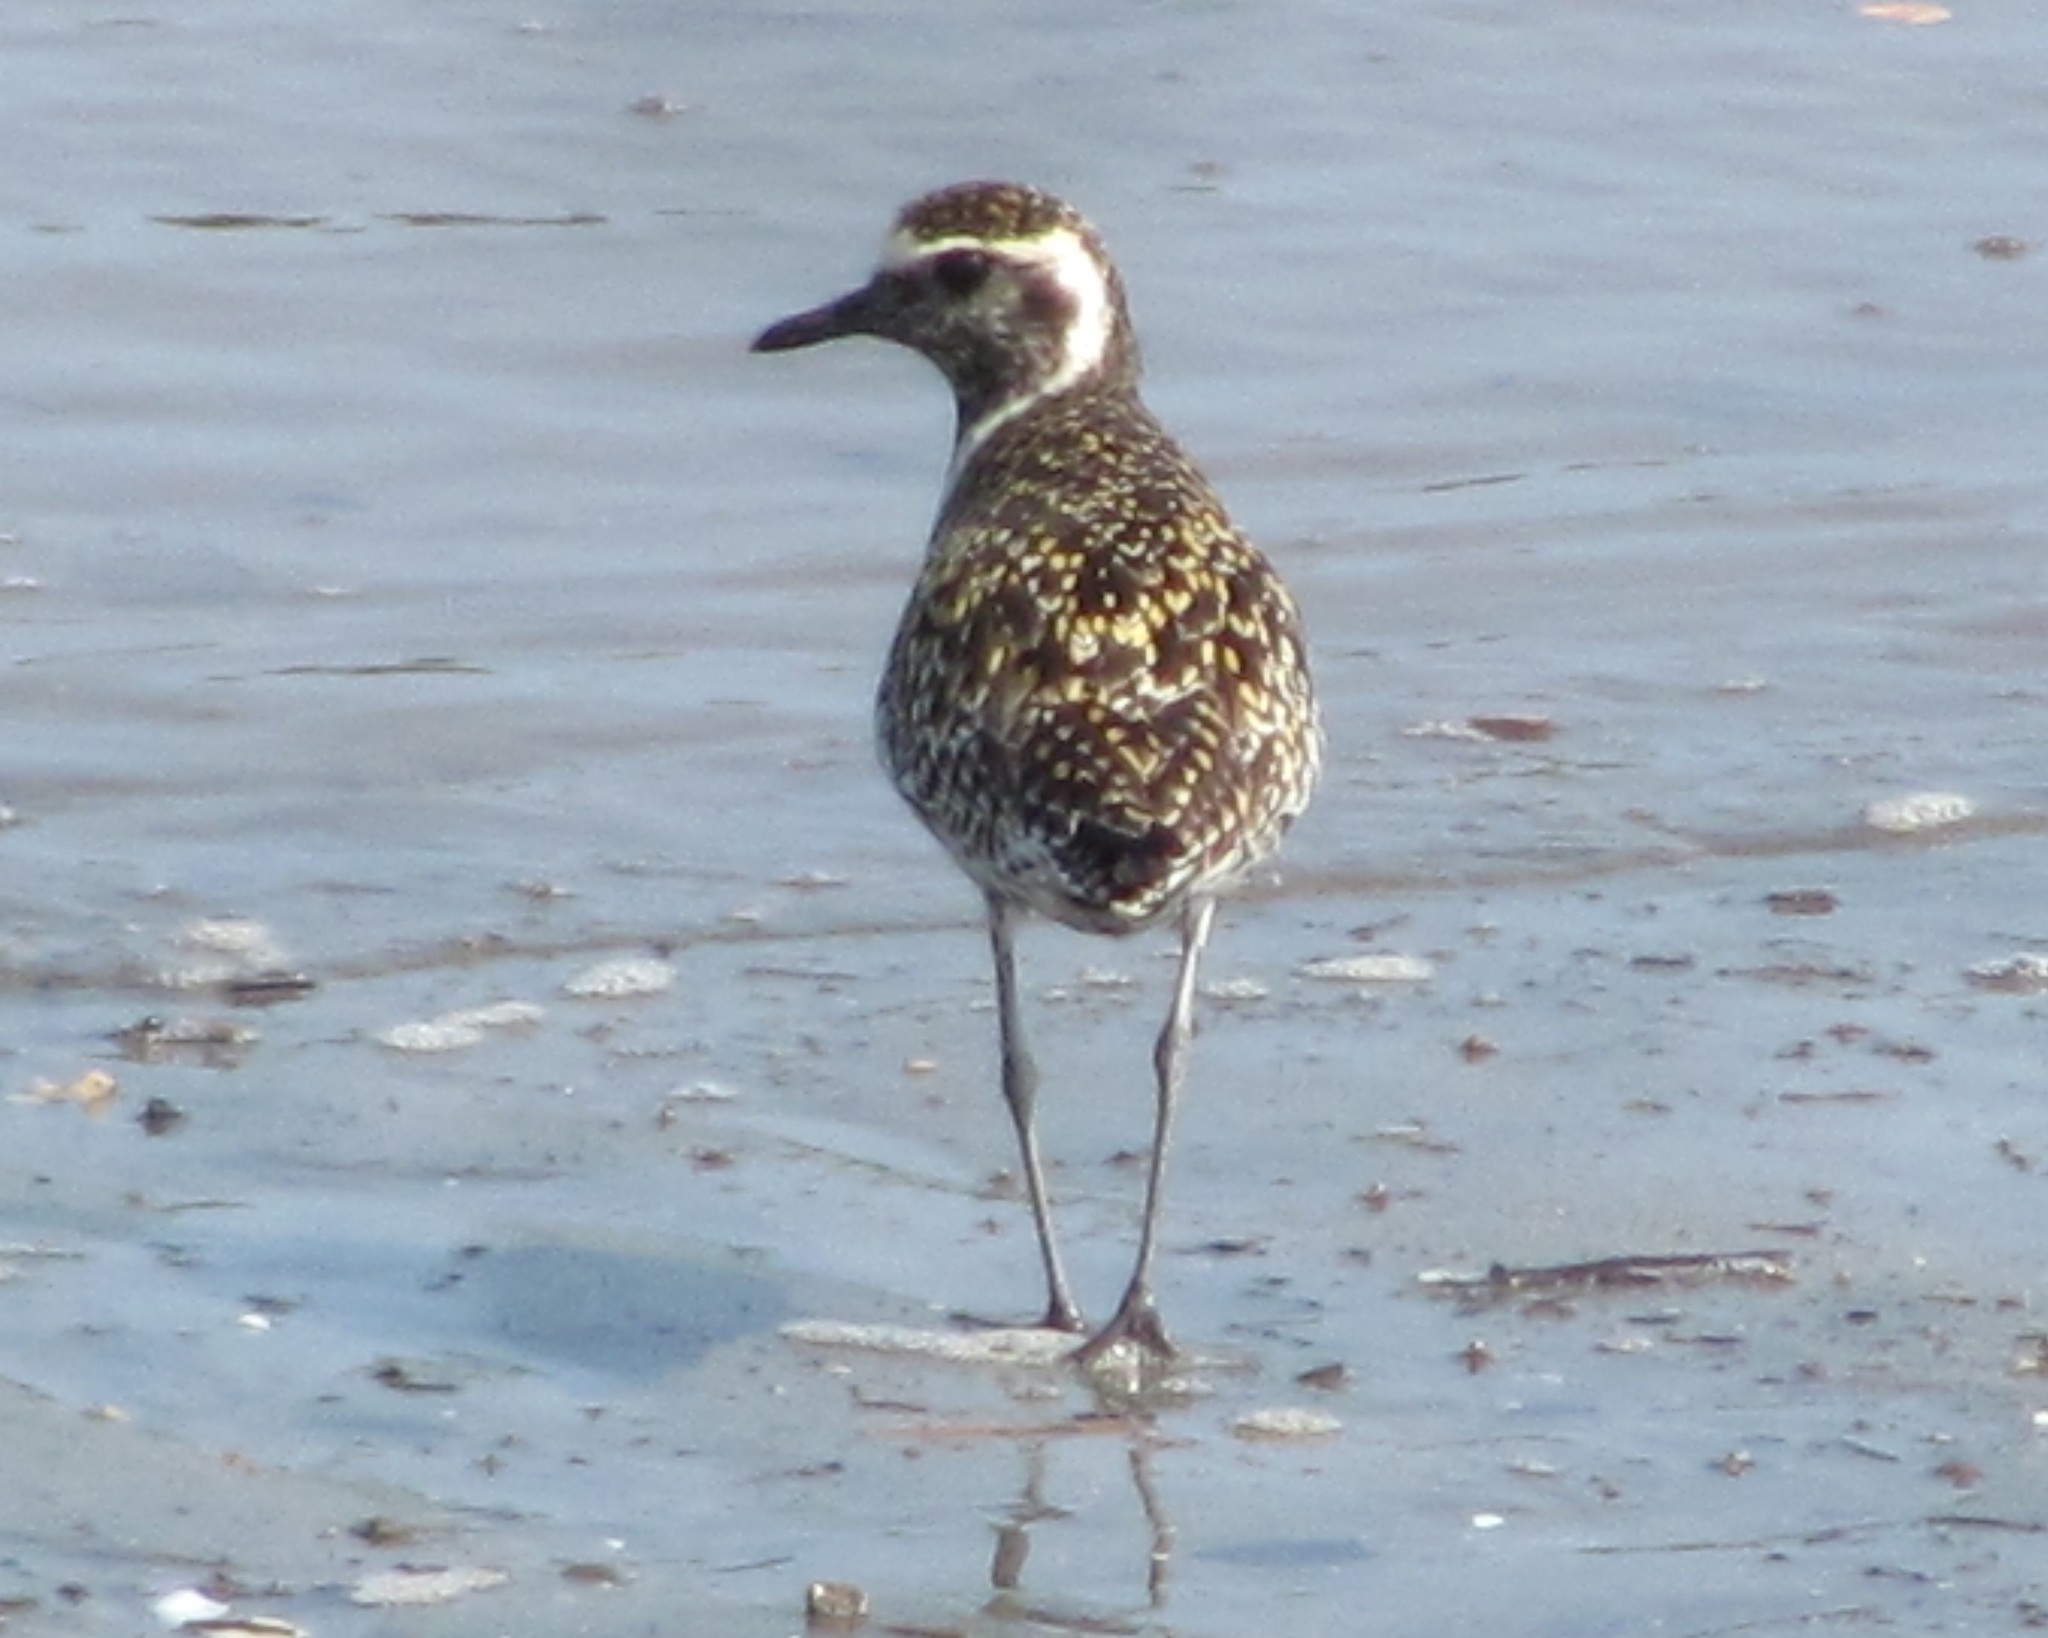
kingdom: Animalia
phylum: Chordata
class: Aves
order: Charadriiformes
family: Charadriidae
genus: Pluvialis
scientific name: Pluvialis fulva
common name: Pacific golden plover
